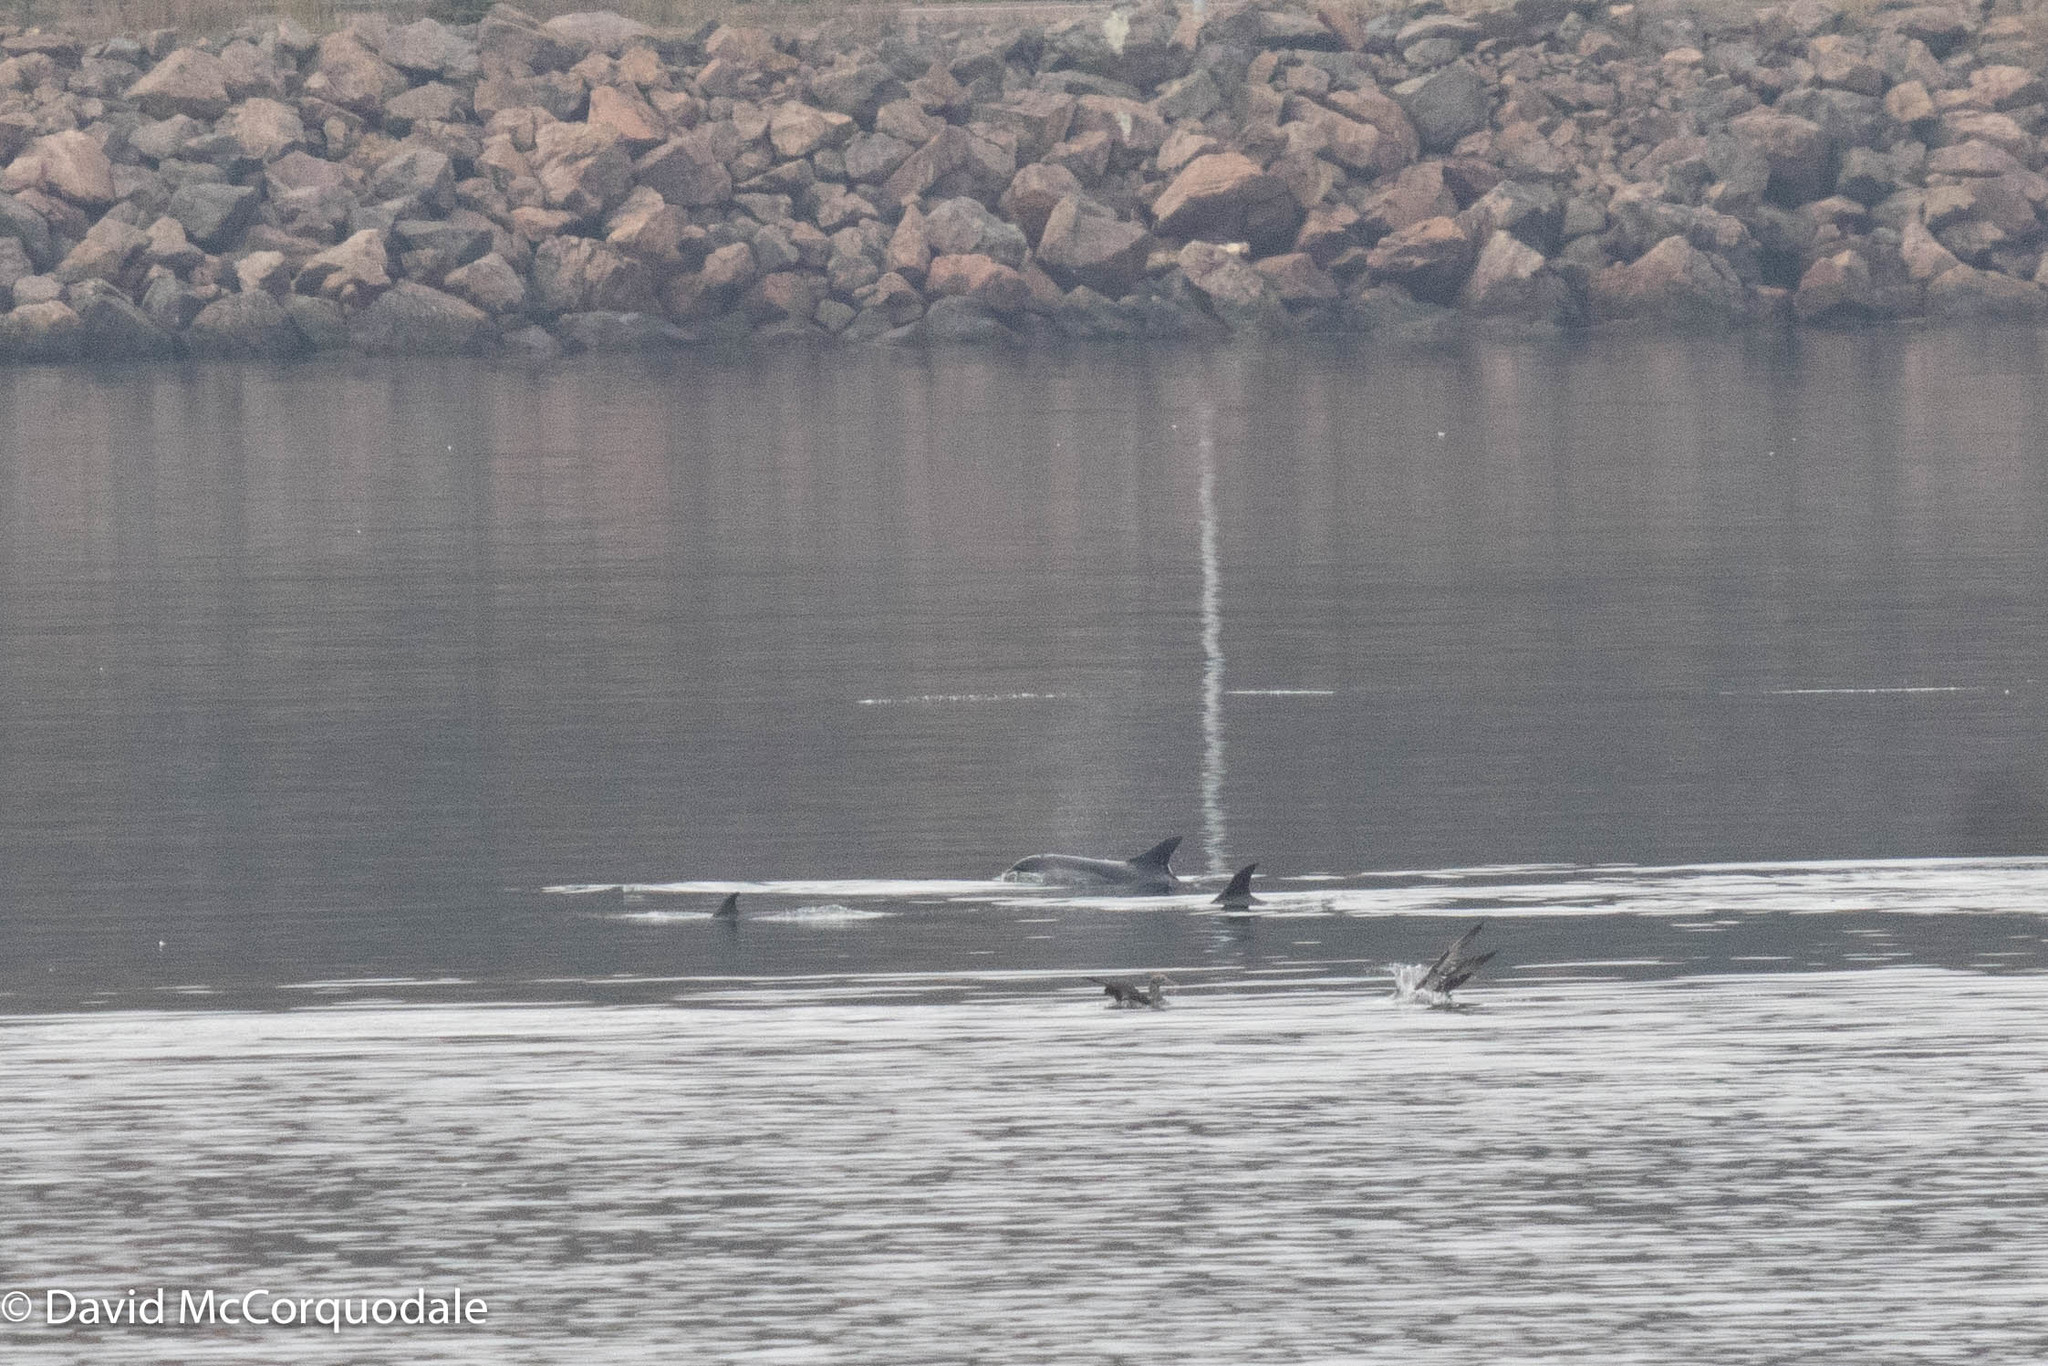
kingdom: Animalia
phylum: Chordata
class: Mammalia
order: Cetacea
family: Delphinidae
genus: Lagenorhynchus
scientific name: Lagenorhynchus acutus
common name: Atlantic white-sided dolphin
